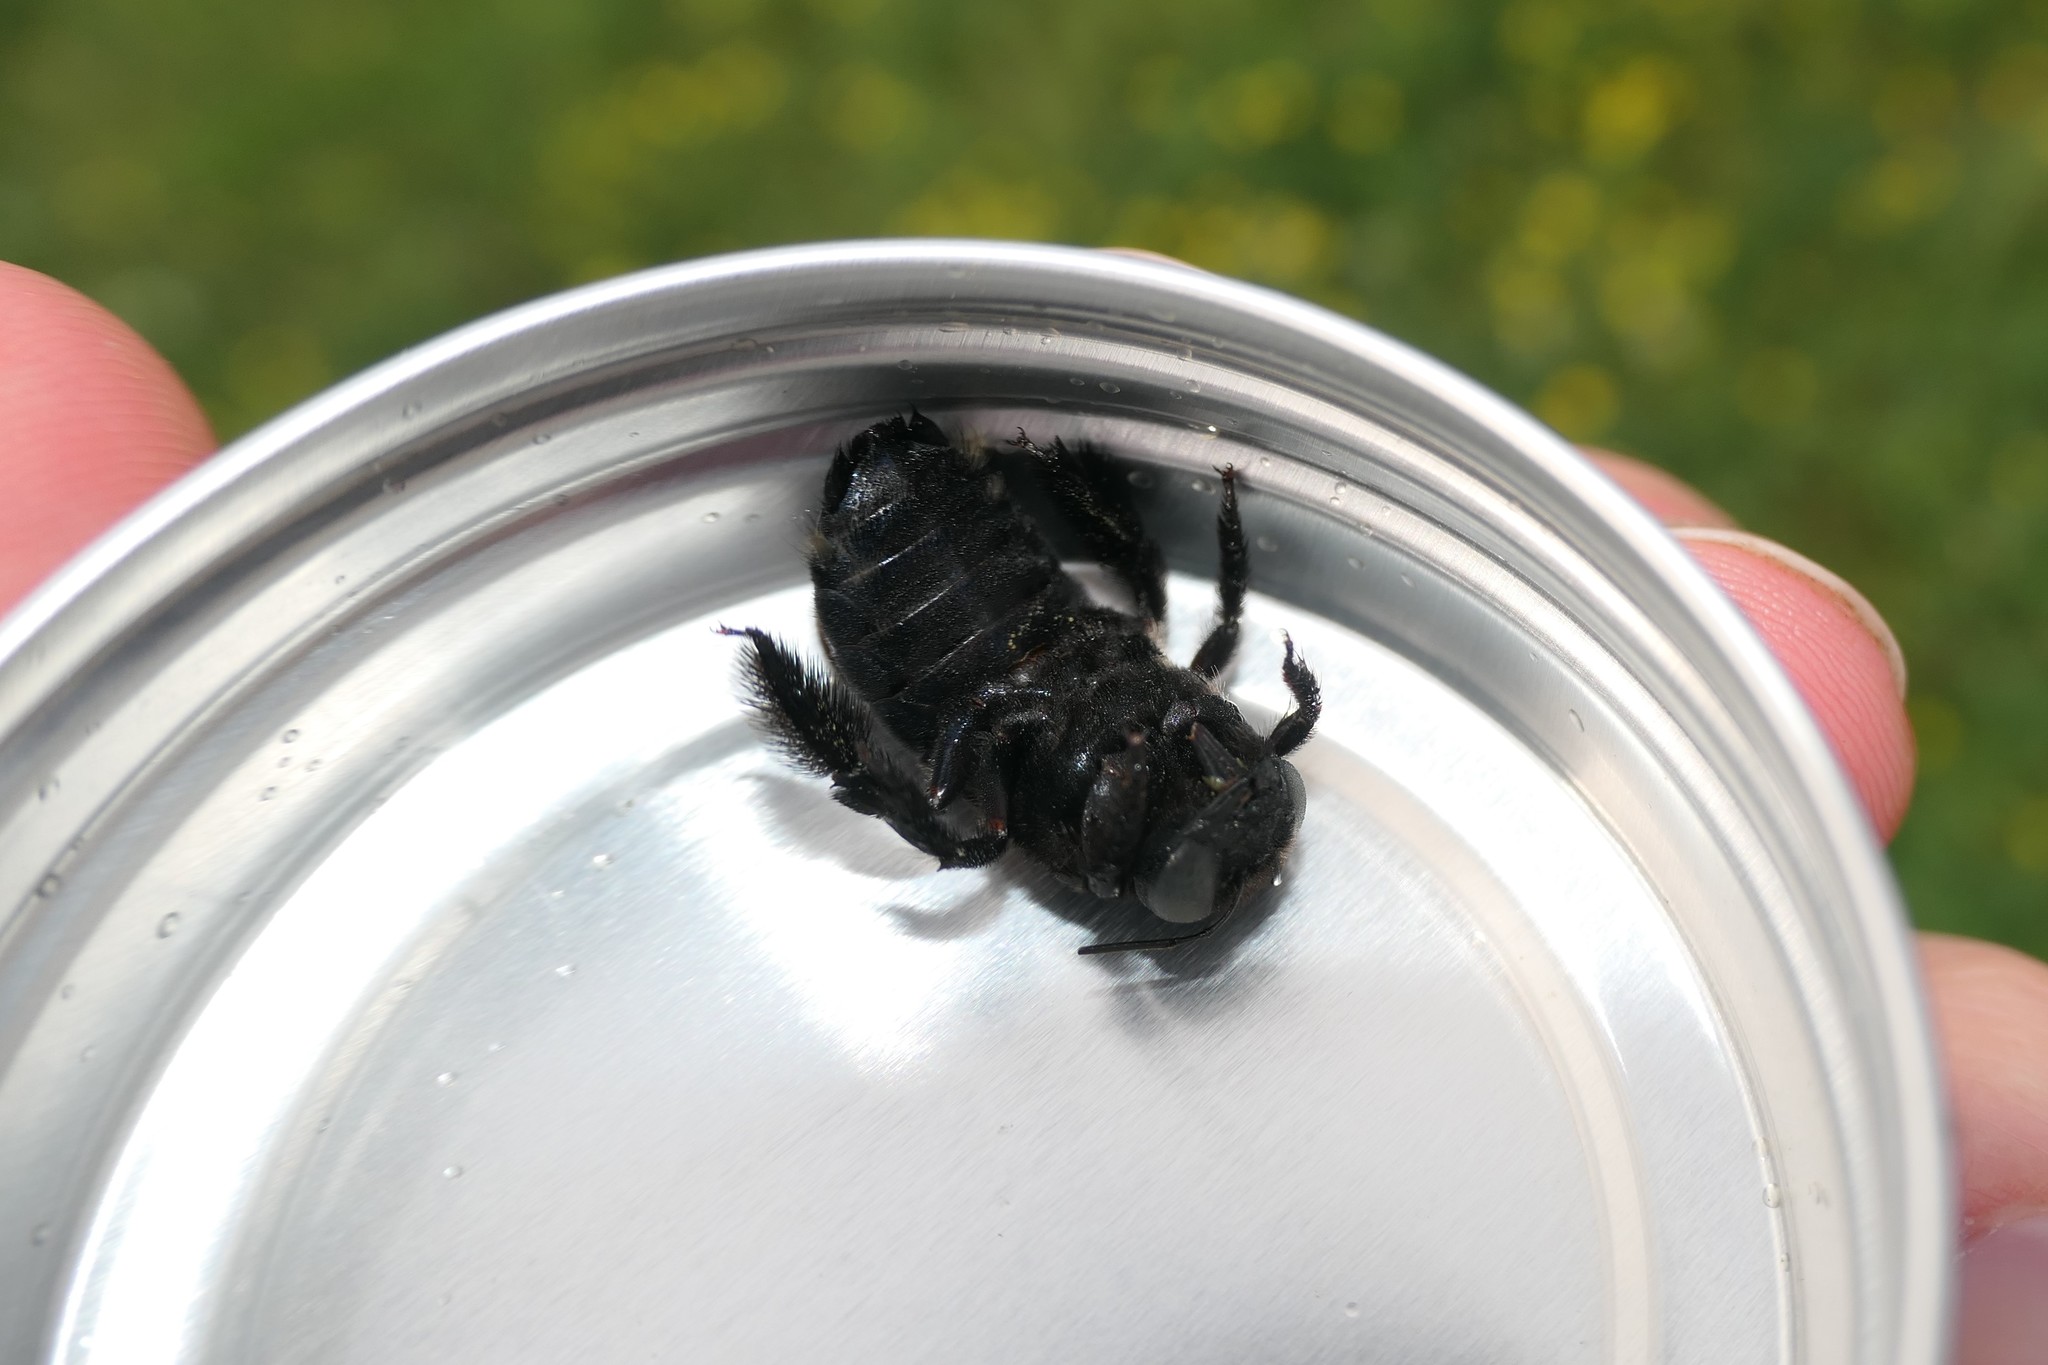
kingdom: Animalia
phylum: Arthropoda
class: Insecta
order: Hymenoptera
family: Apidae
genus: Xylocopa
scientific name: Xylocopa micans
